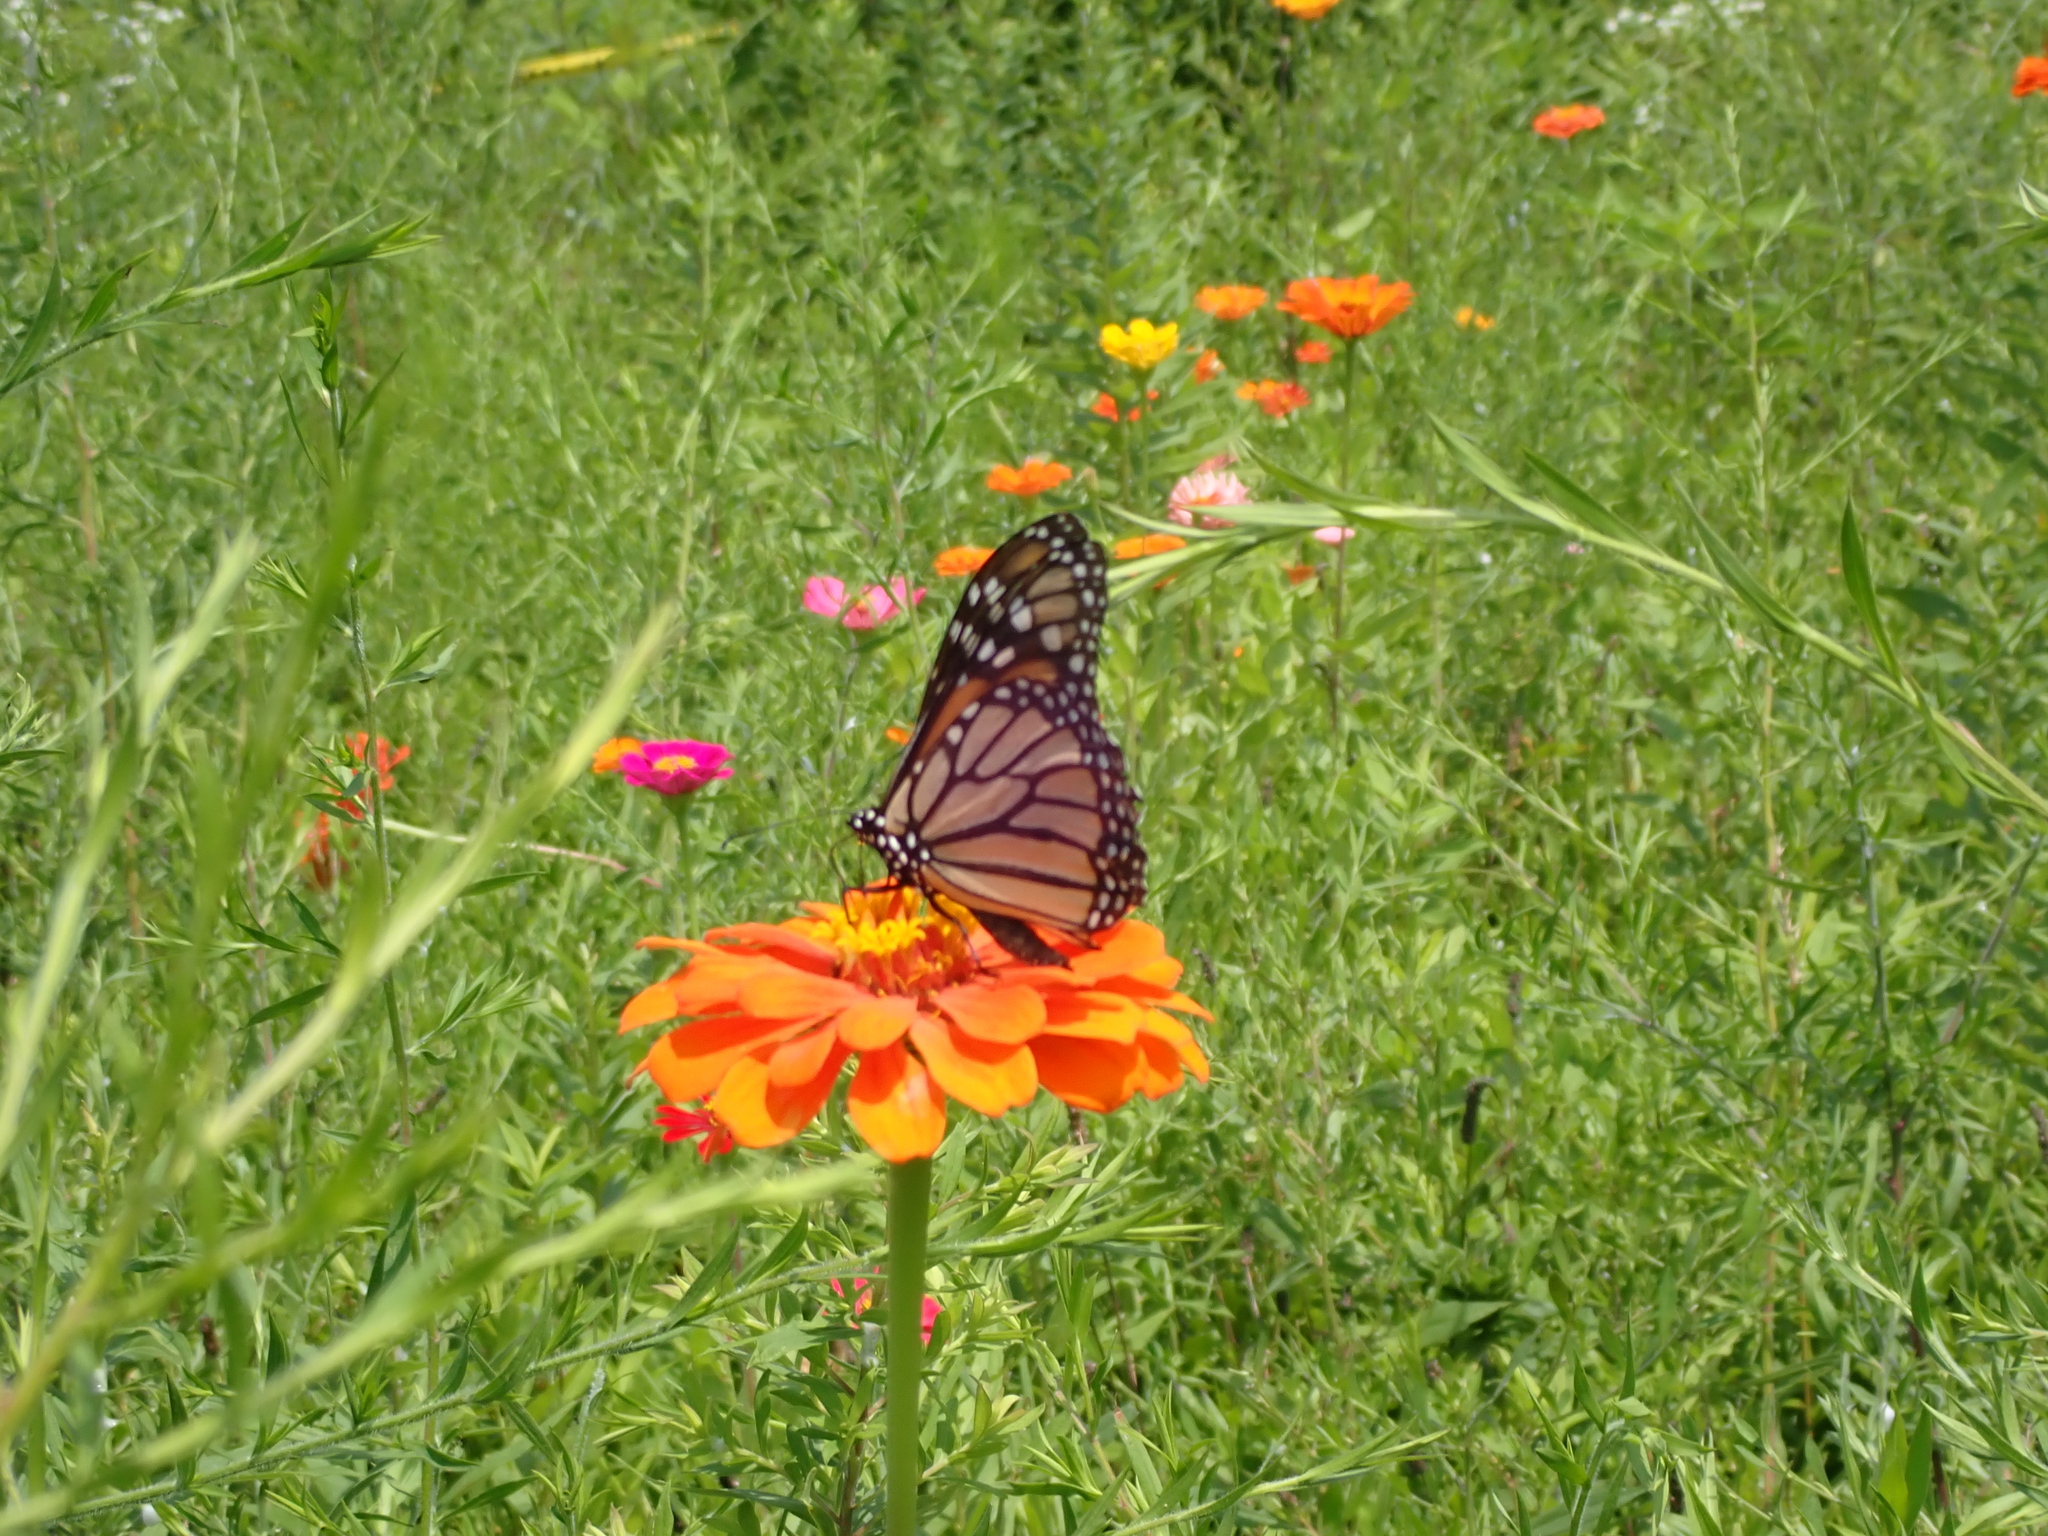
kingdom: Animalia
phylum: Arthropoda
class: Insecta
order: Lepidoptera
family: Nymphalidae
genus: Danaus
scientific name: Danaus plexippus
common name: Monarch
